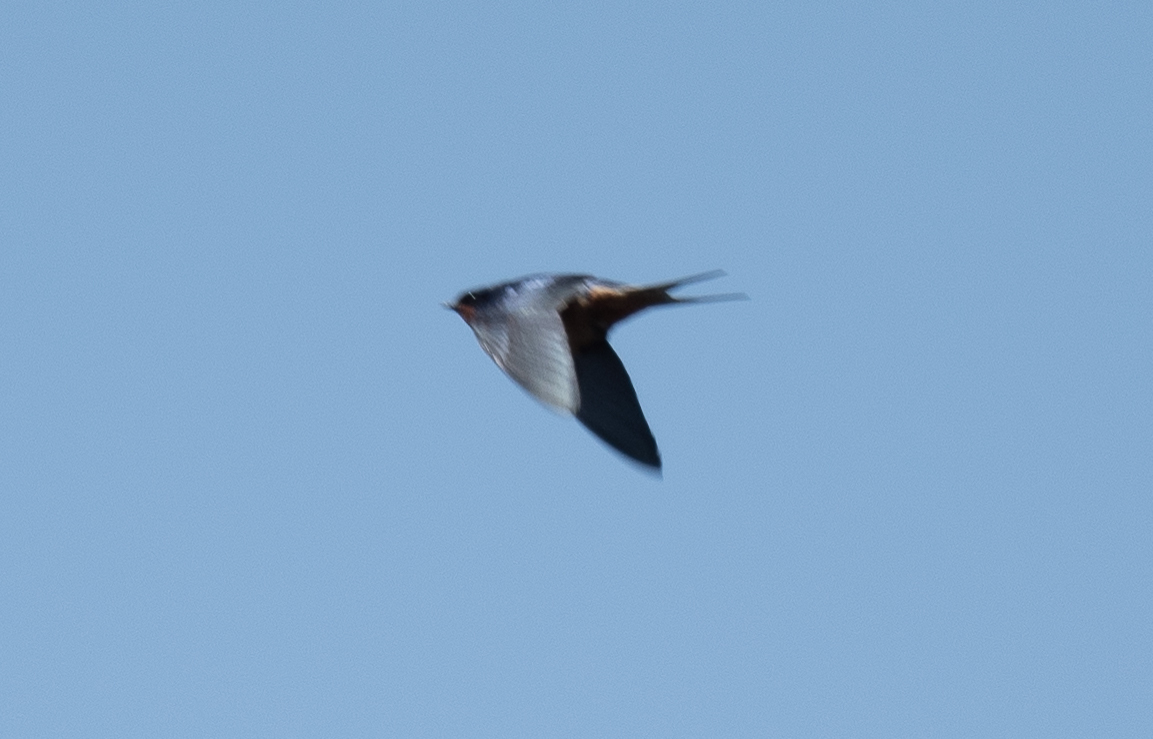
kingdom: Animalia
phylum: Chordata
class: Aves
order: Passeriformes
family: Hirundinidae
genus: Hirundo
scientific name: Hirundo rustica
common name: Barn swallow
